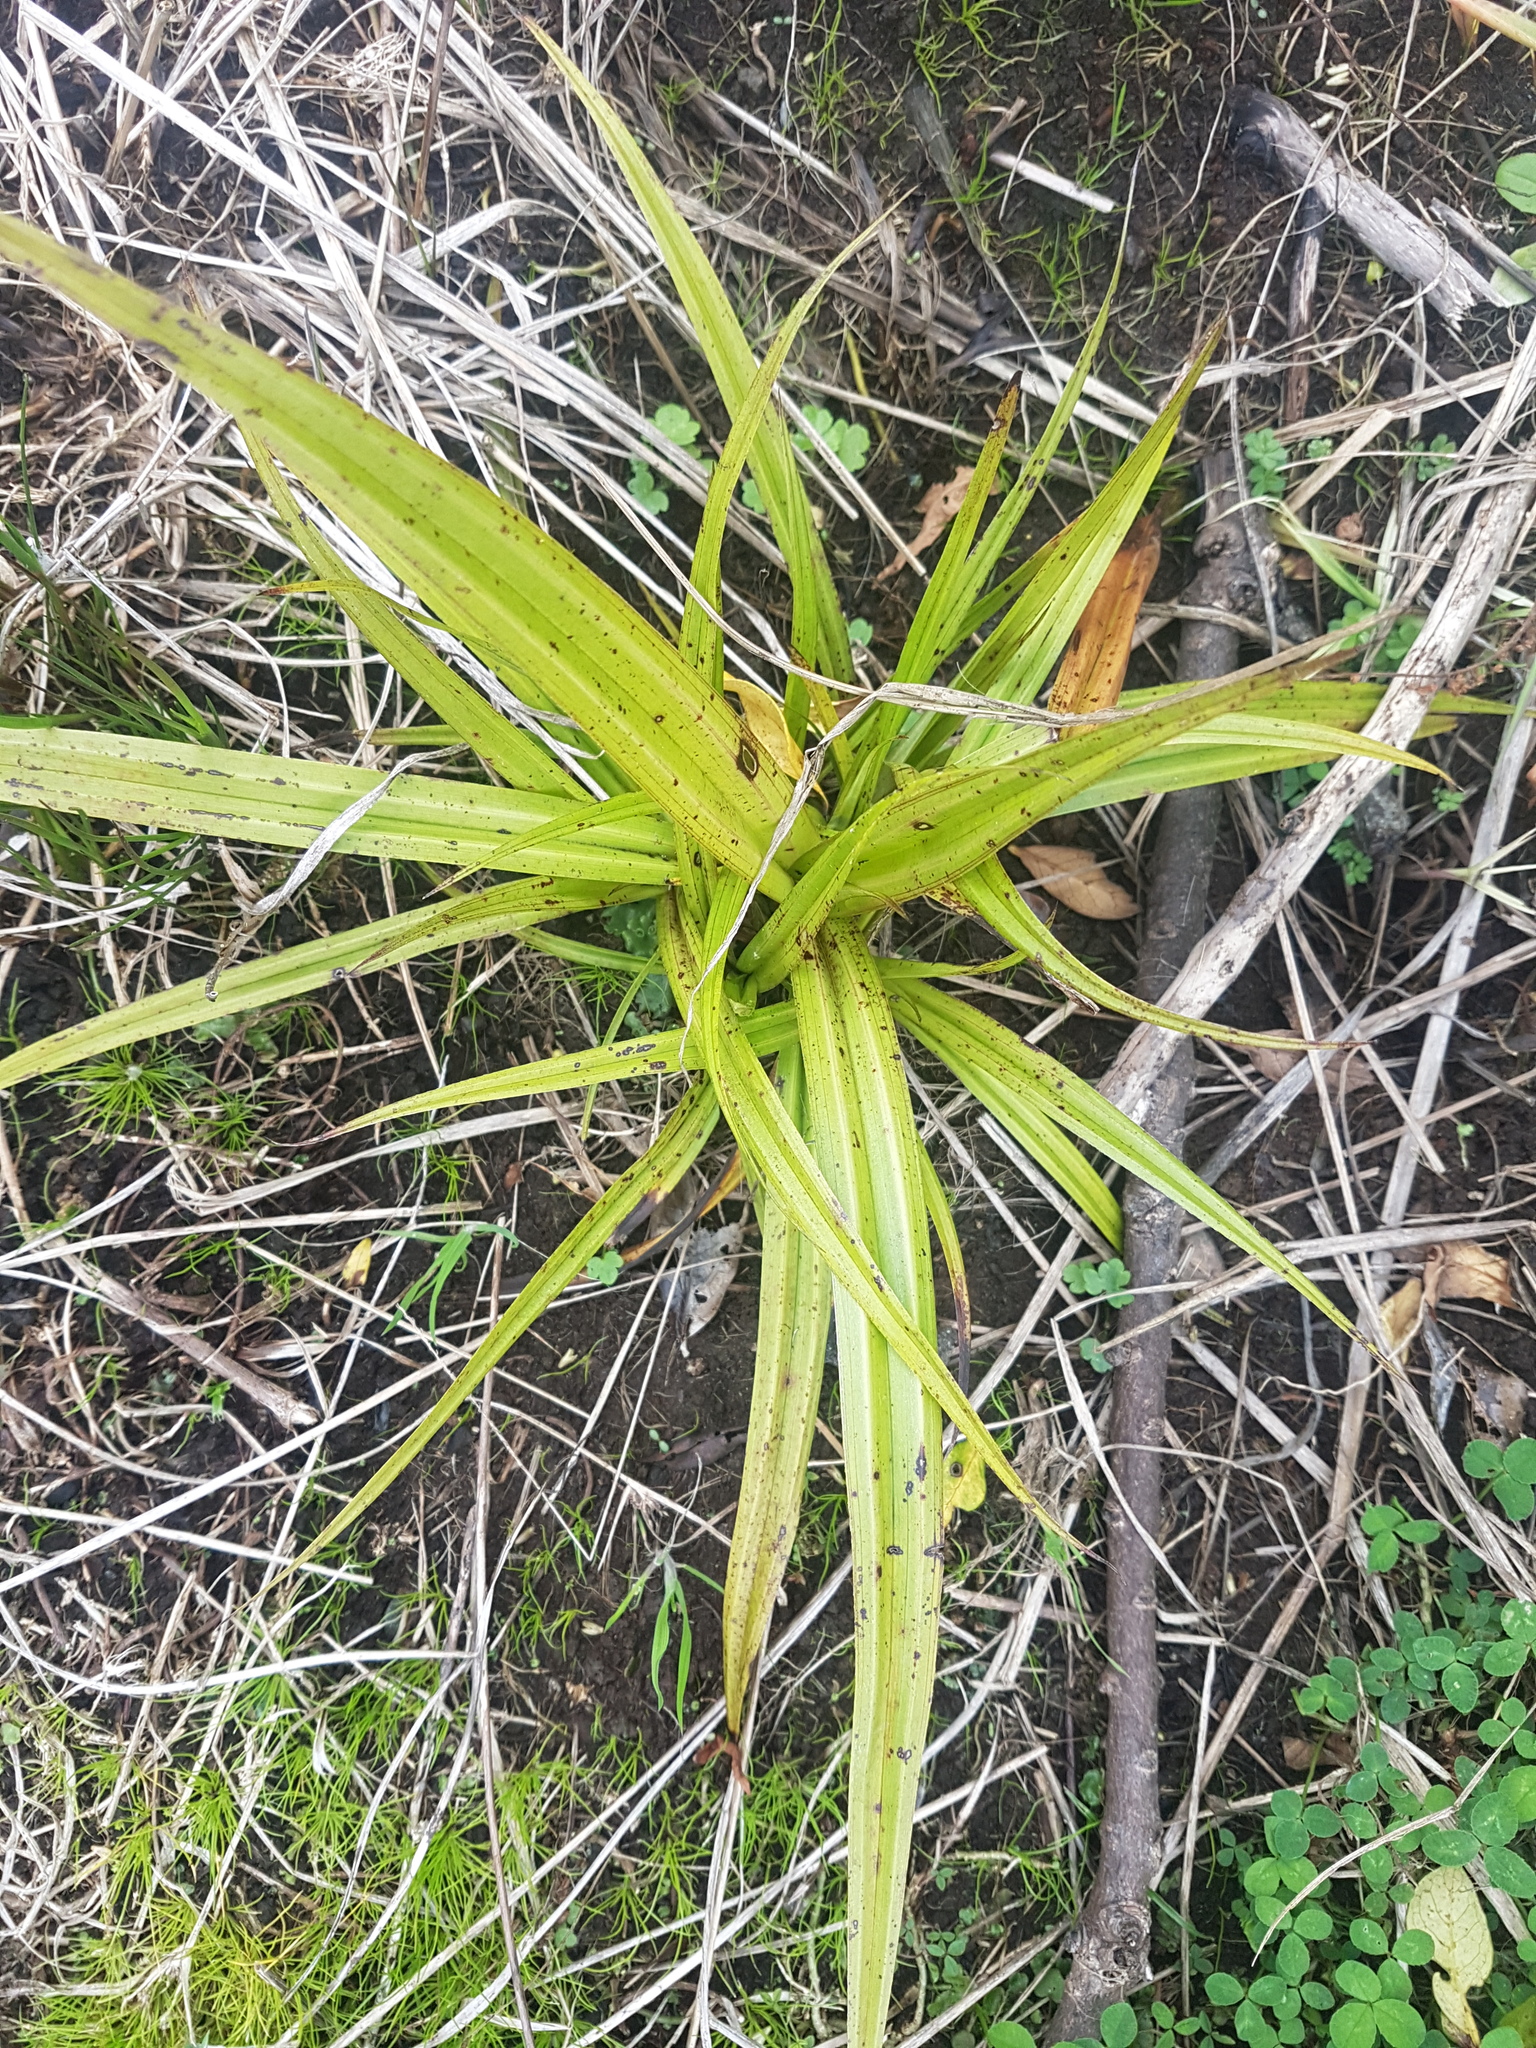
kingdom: Plantae
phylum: Tracheophyta
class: Liliopsida
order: Asparagales
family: Asteliaceae
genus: Astelia
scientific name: Astelia fragrans
